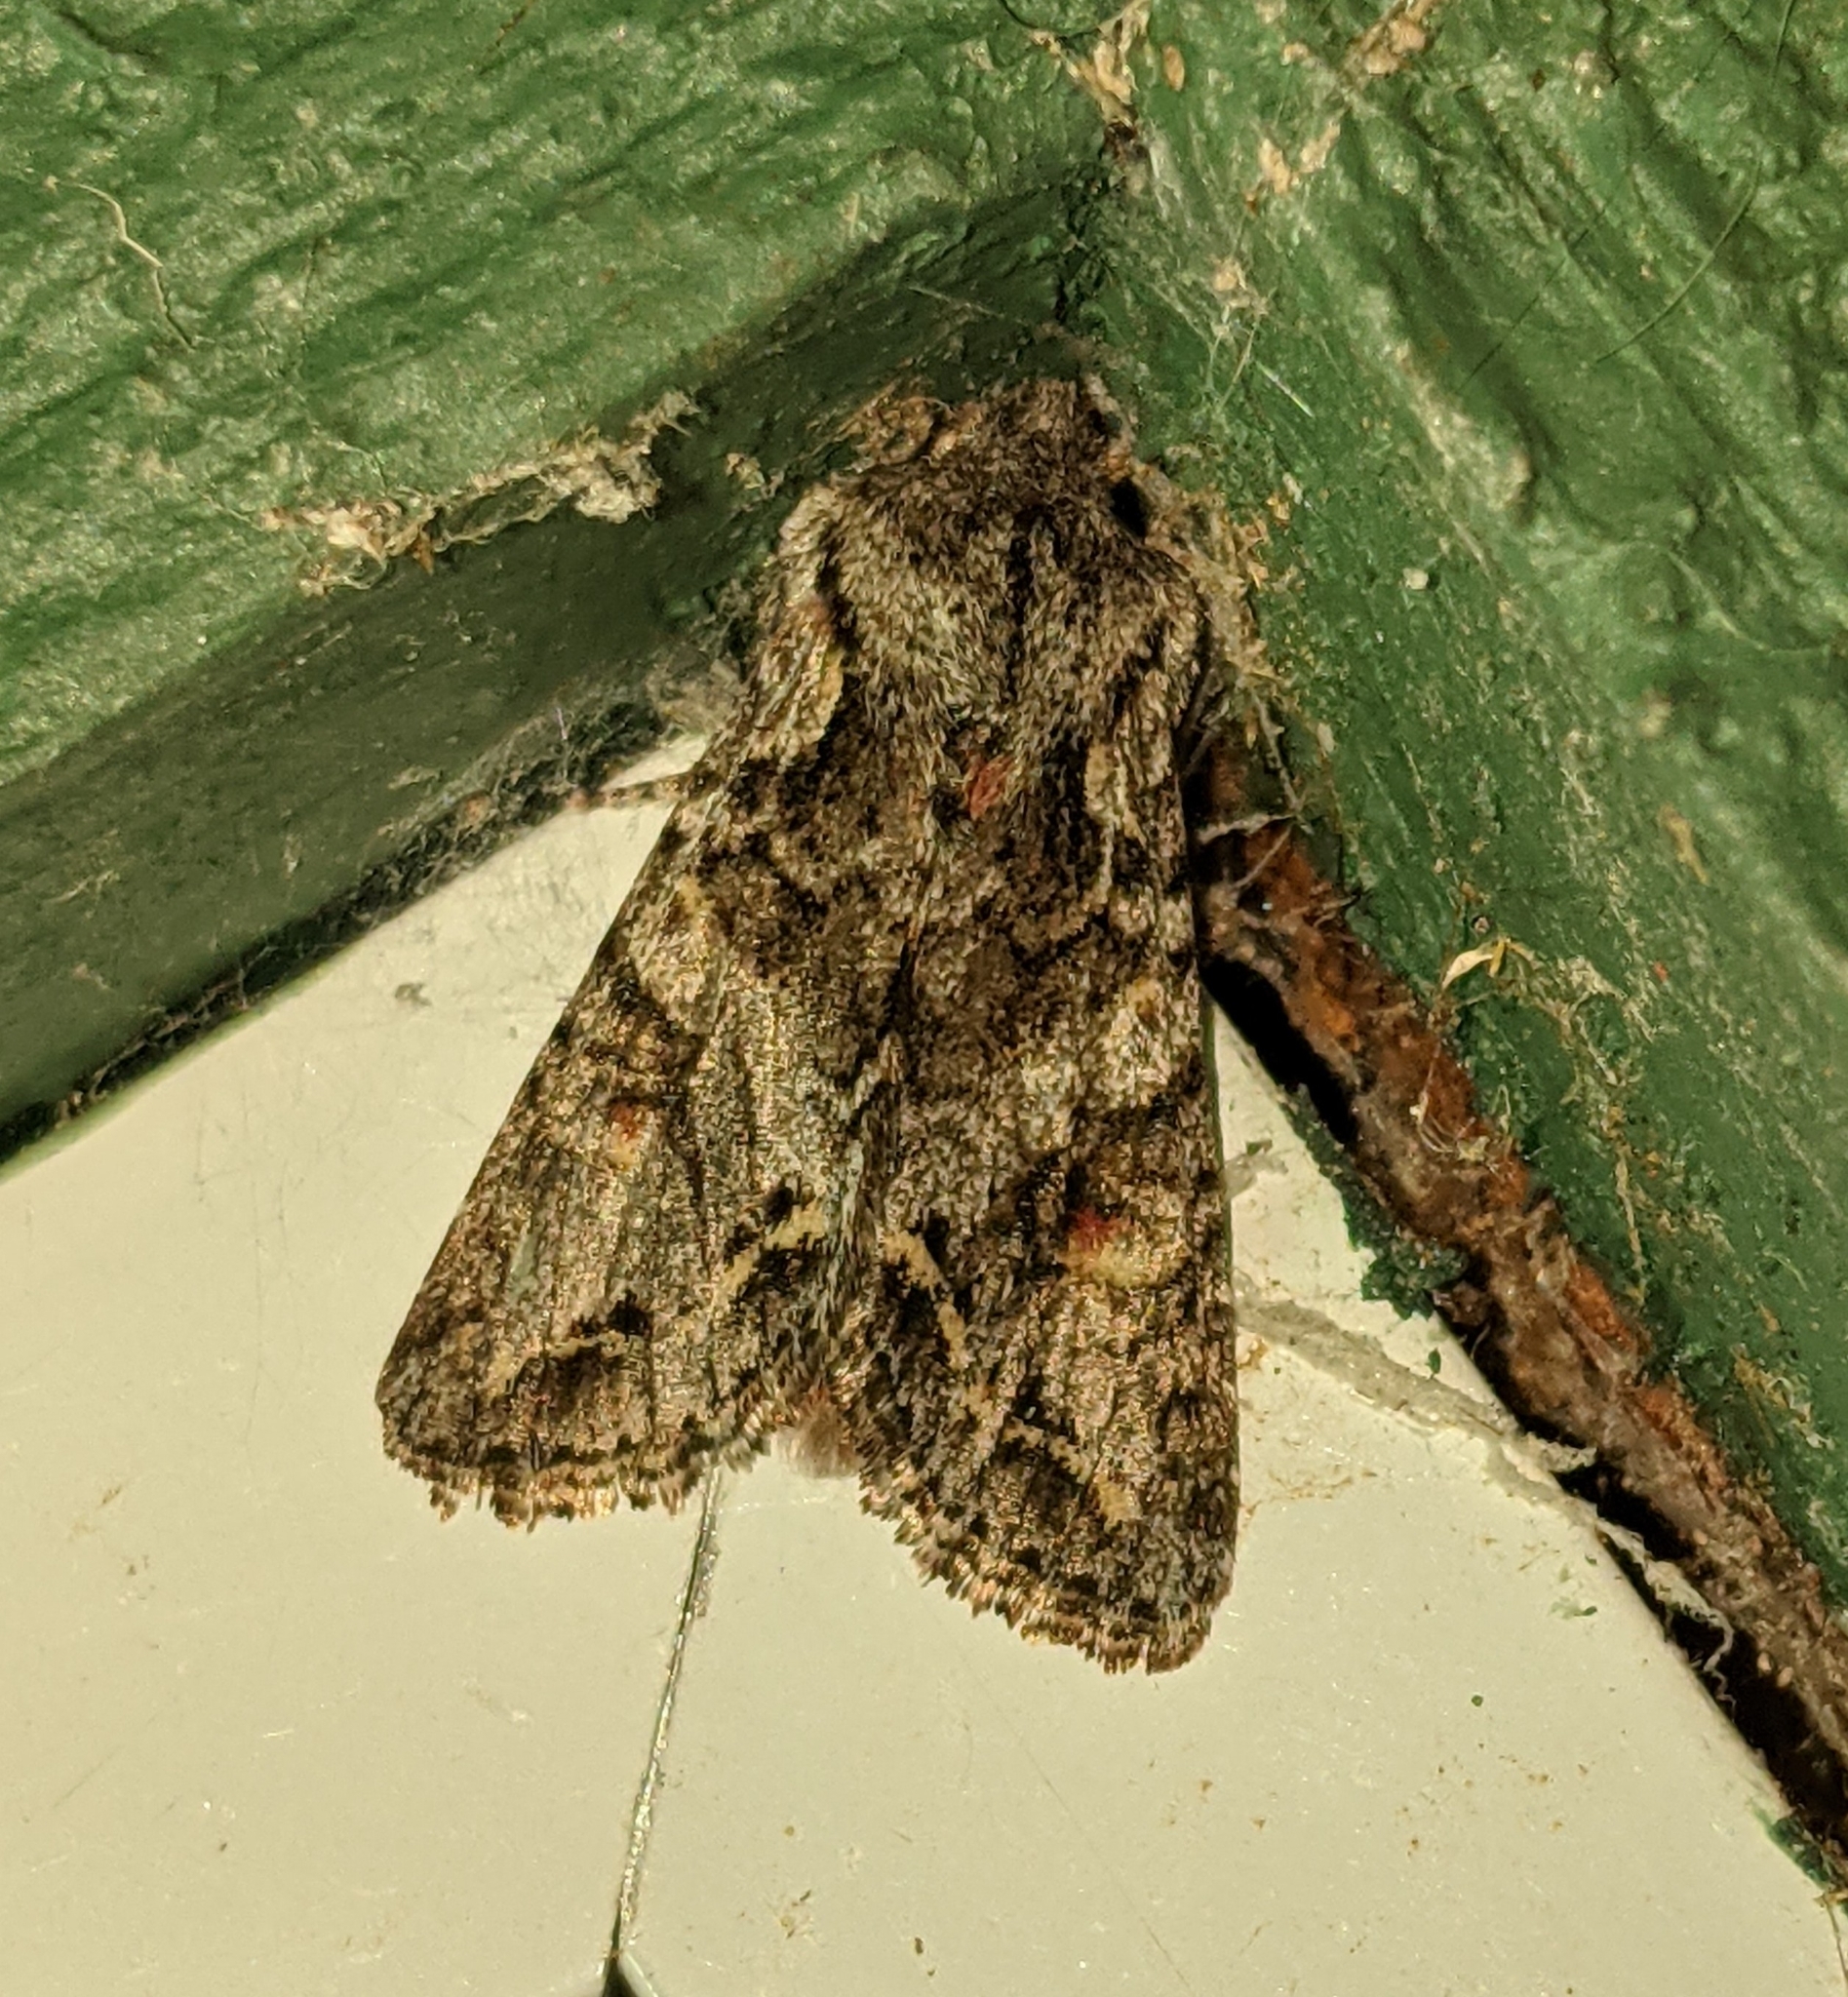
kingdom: Animalia
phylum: Arthropoda
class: Insecta
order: Lepidoptera
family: Noctuidae
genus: Egira
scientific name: Egira hiemalis
